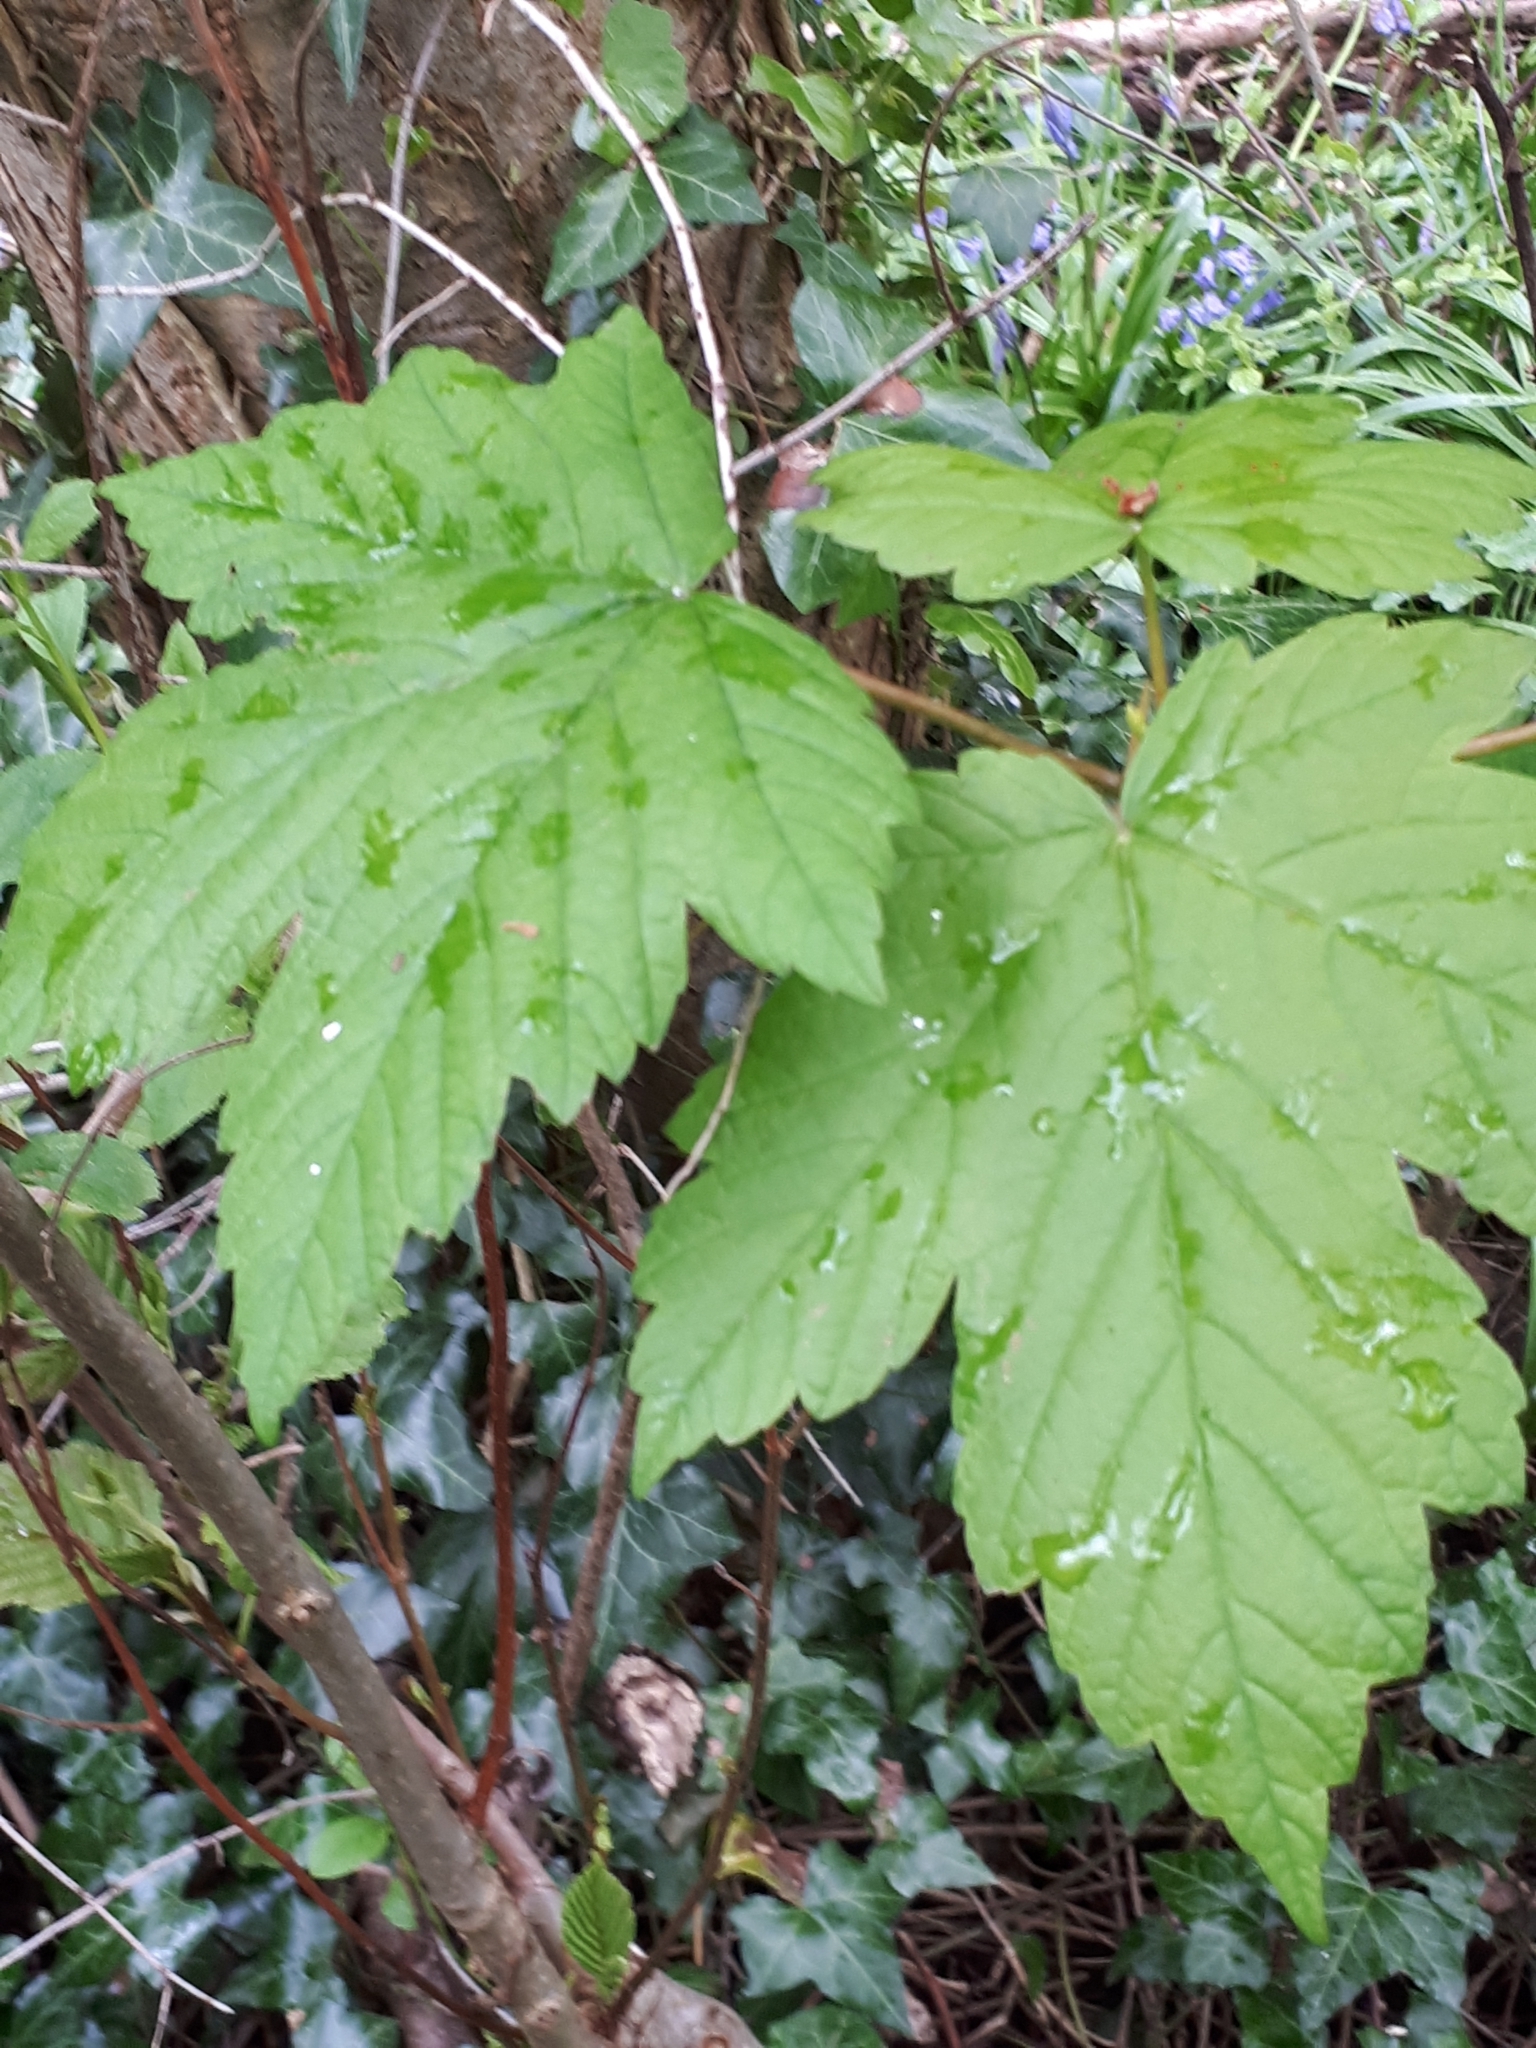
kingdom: Plantae
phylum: Tracheophyta
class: Magnoliopsida
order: Sapindales
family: Sapindaceae
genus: Acer
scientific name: Acer pseudoplatanus
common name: Sycamore
